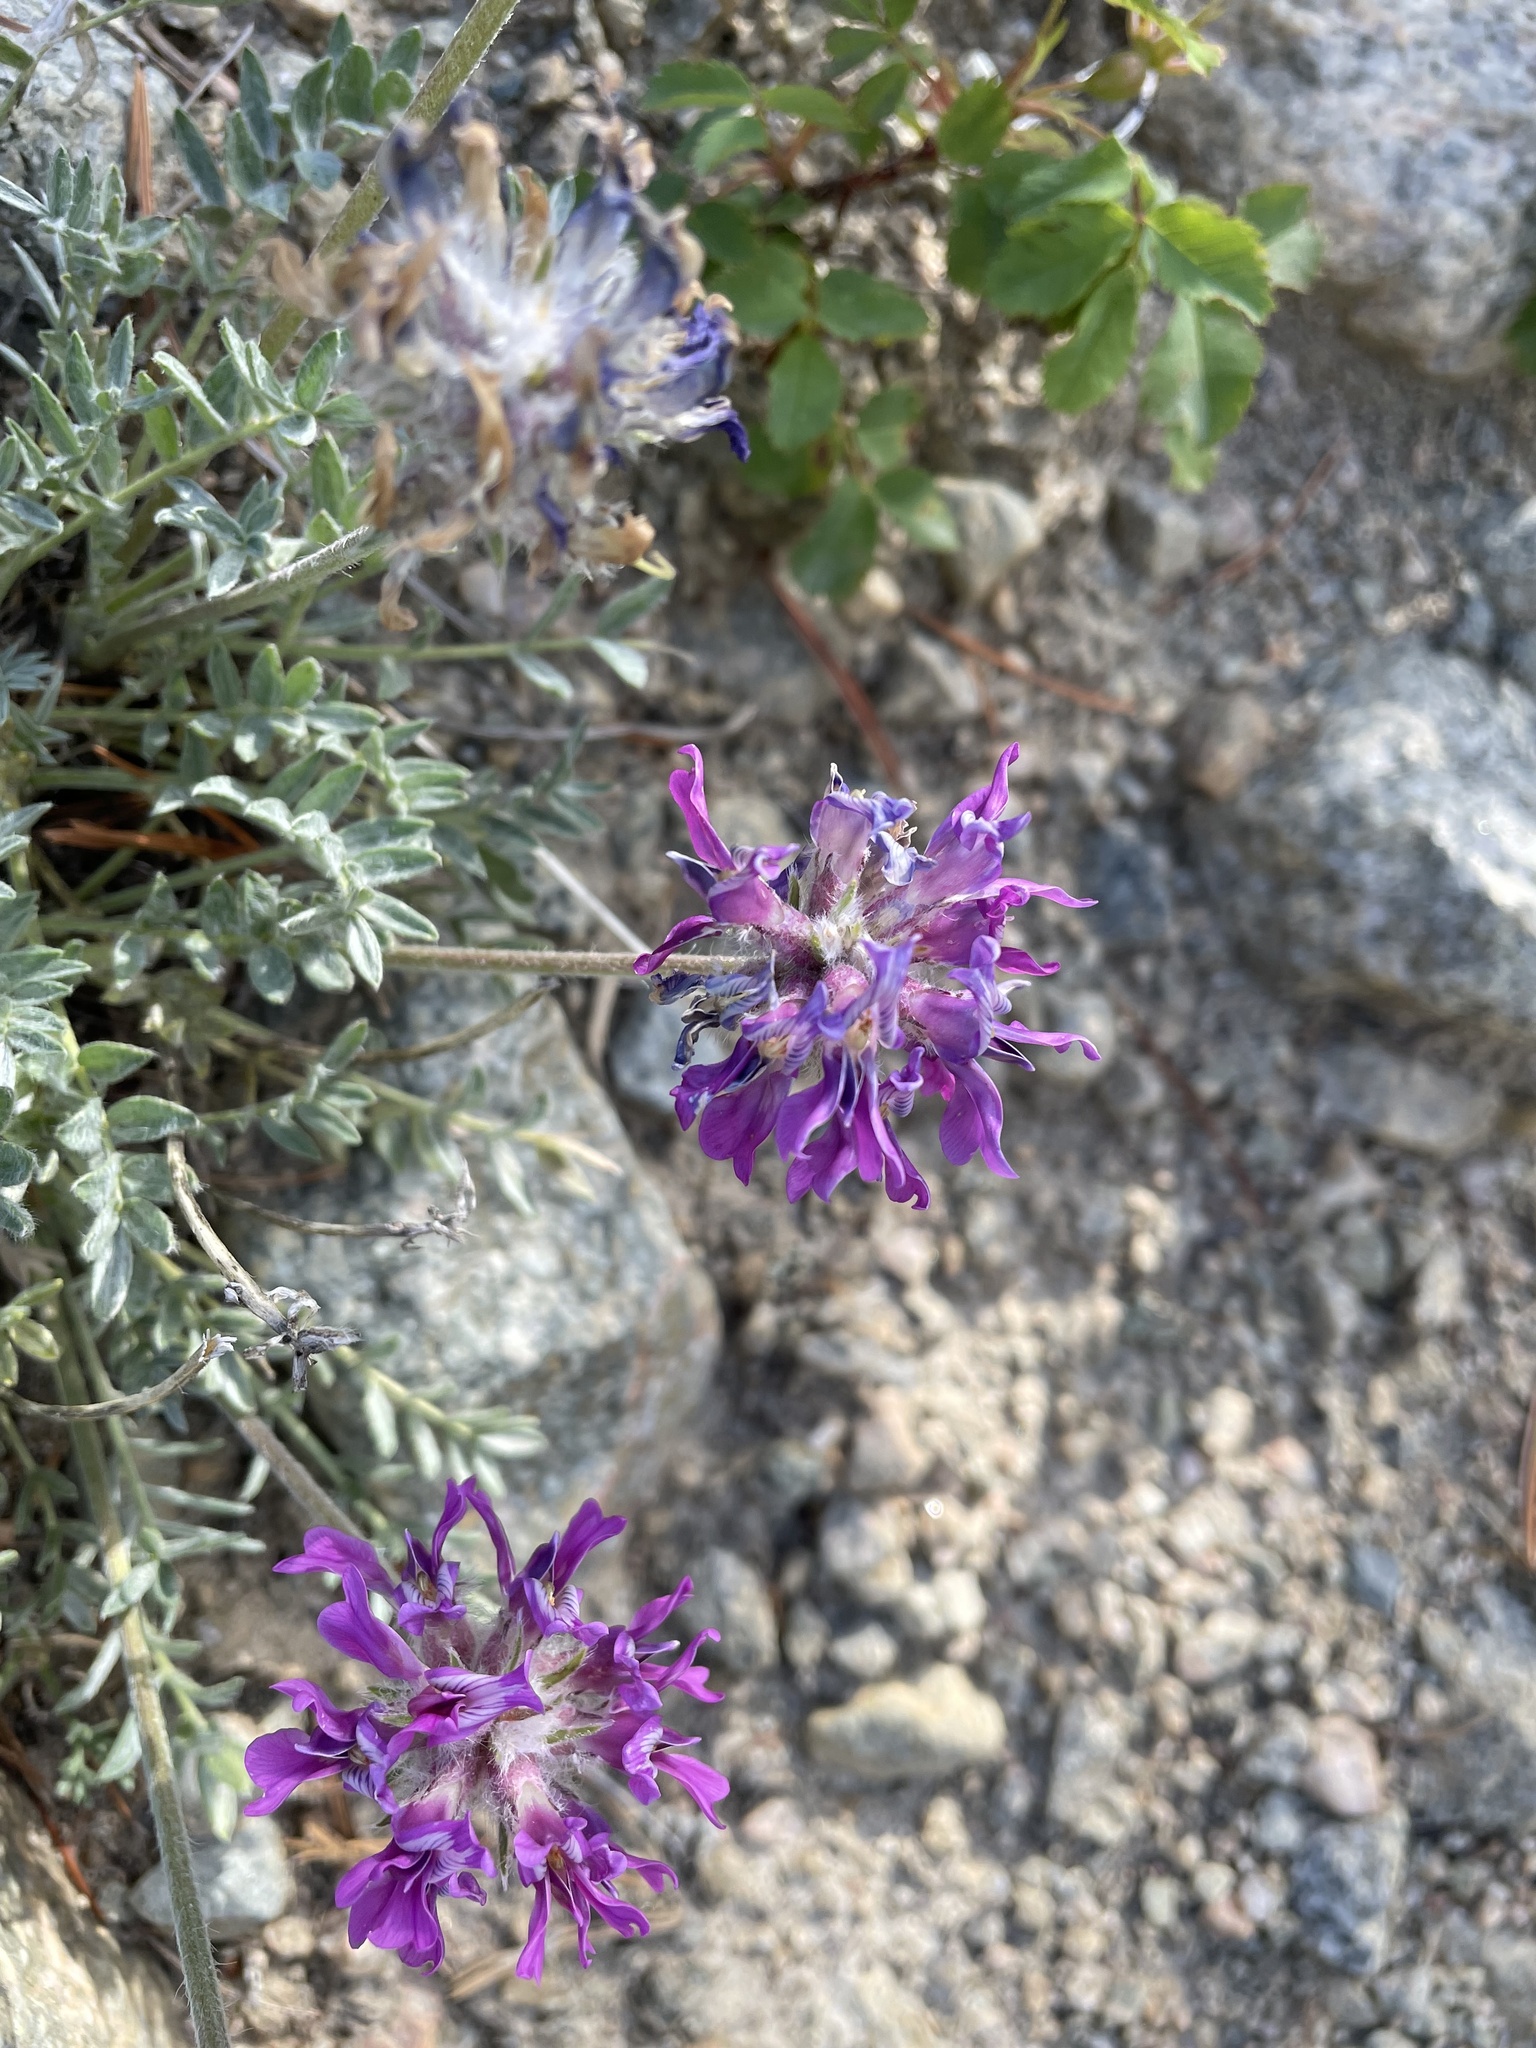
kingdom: Plantae
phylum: Tracheophyta
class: Magnoliopsida
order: Fabales
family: Fabaceae
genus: Oxytropis
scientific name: Oxytropis besseyi
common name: Bessey's locoweed
